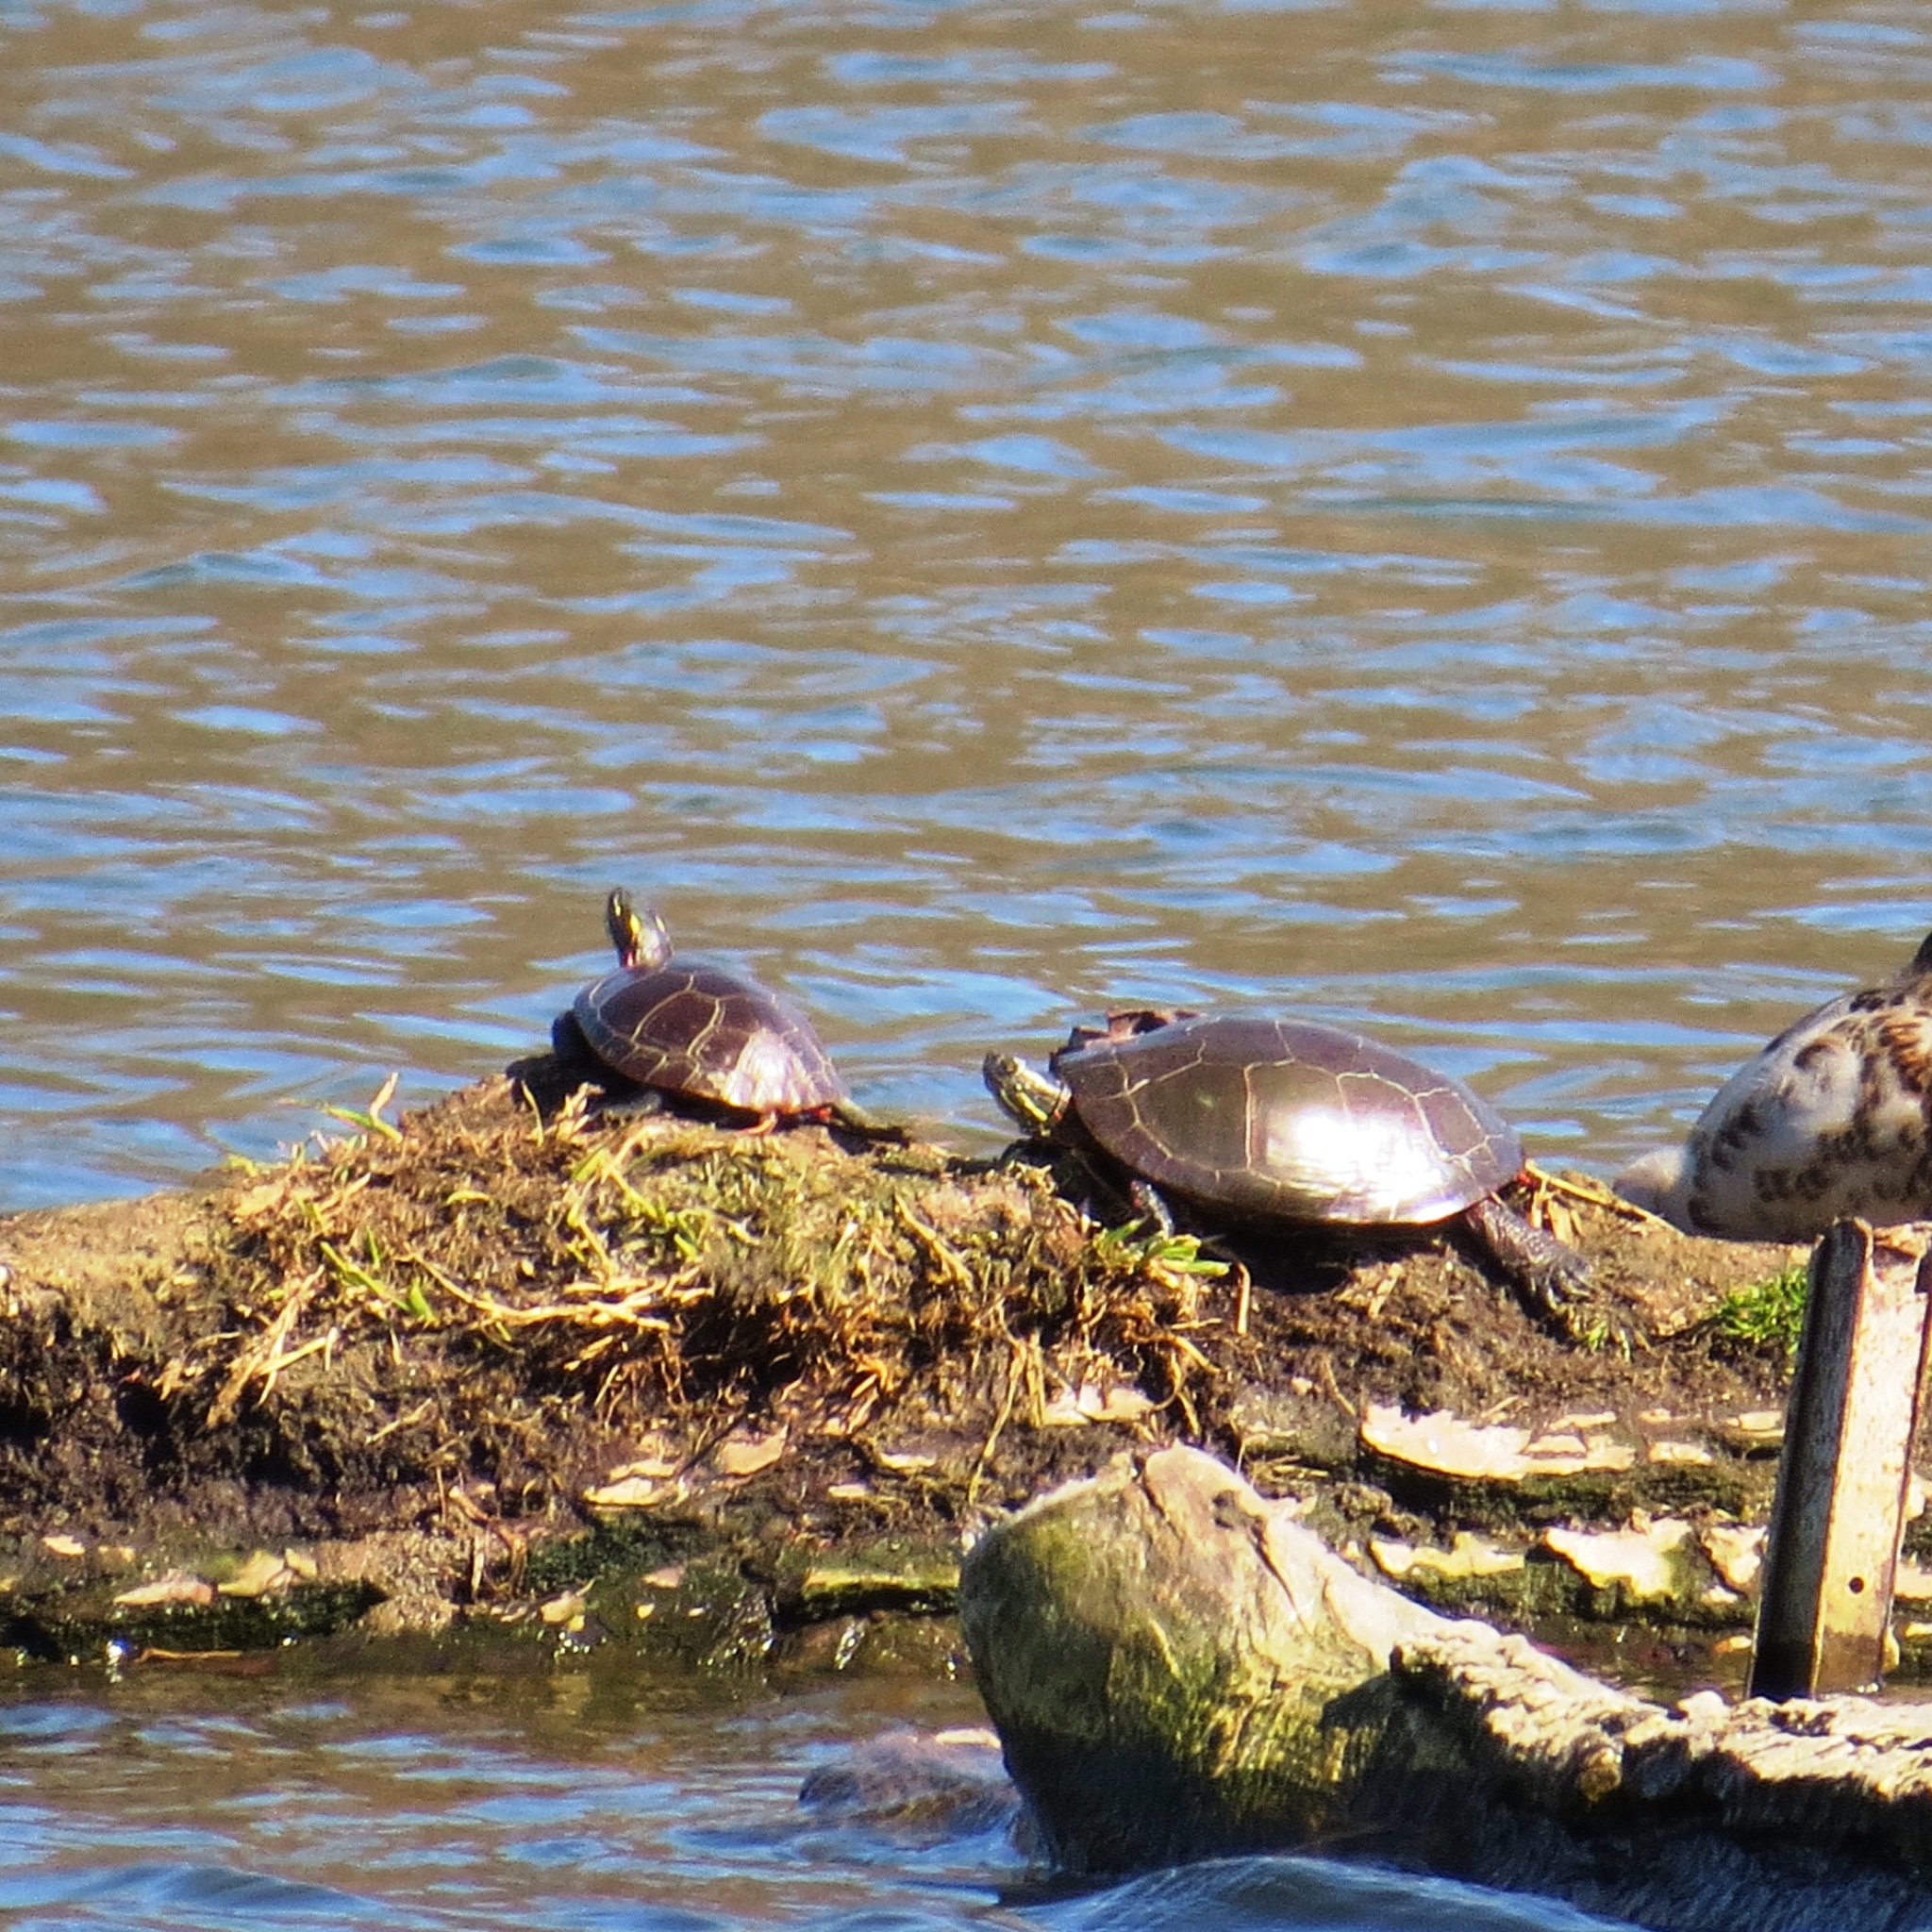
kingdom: Animalia
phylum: Chordata
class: Testudines
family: Emydidae
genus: Chrysemys
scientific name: Chrysemys picta
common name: Painted turtle
